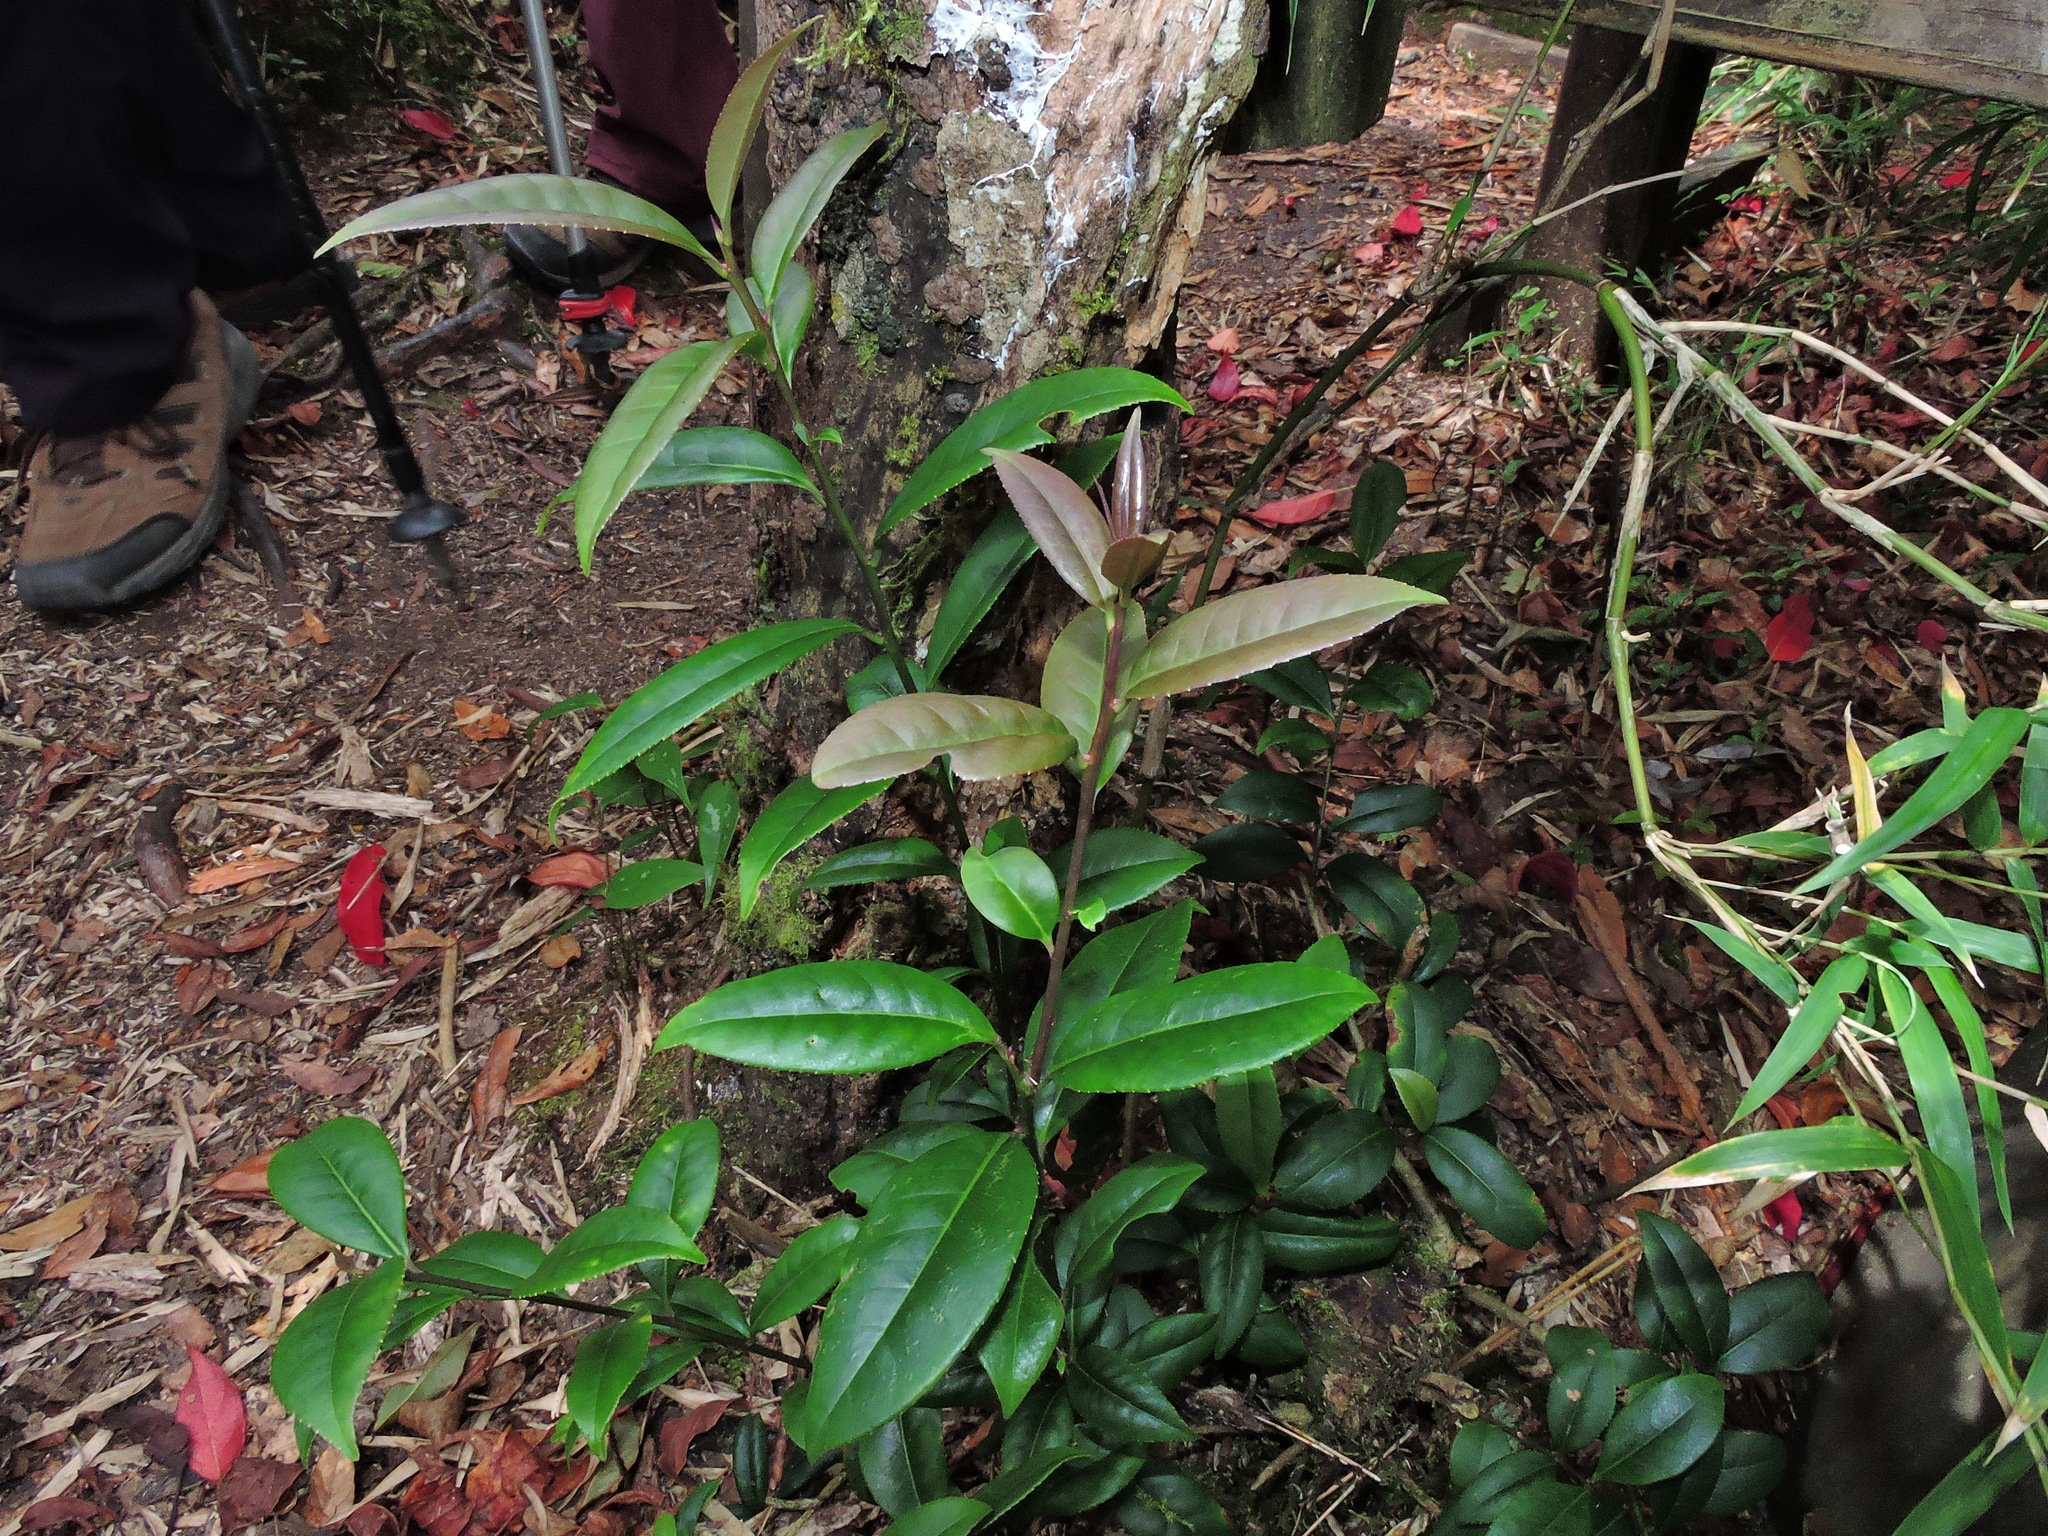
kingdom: Plantae
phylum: Tracheophyta
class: Magnoliopsida
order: Aquifoliales
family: Aquifoliaceae
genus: Ilex
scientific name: Ilex lonicerifolia
